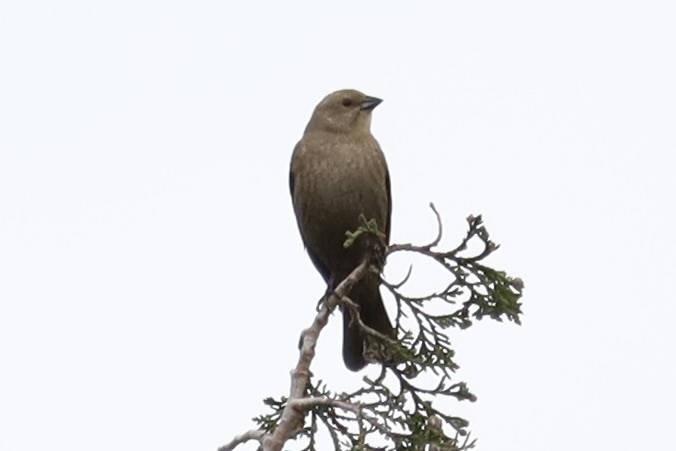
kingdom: Animalia
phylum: Chordata
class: Aves
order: Passeriformes
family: Icteridae
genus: Molothrus
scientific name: Molothrus ater
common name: Brown-headed cowbird
